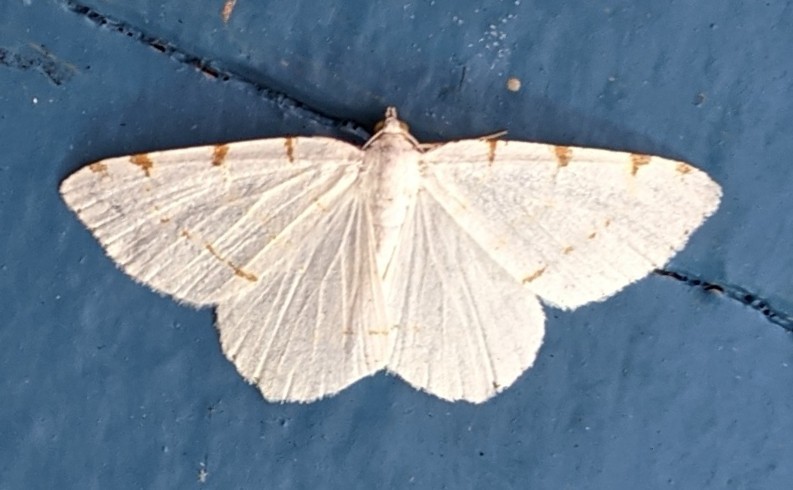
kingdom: Animalia
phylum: Arthropoda
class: Insecta
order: Lepidoptera
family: Geometridae
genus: Macaria
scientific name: Macaria pustularia
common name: Lesser maple spanworm moth
